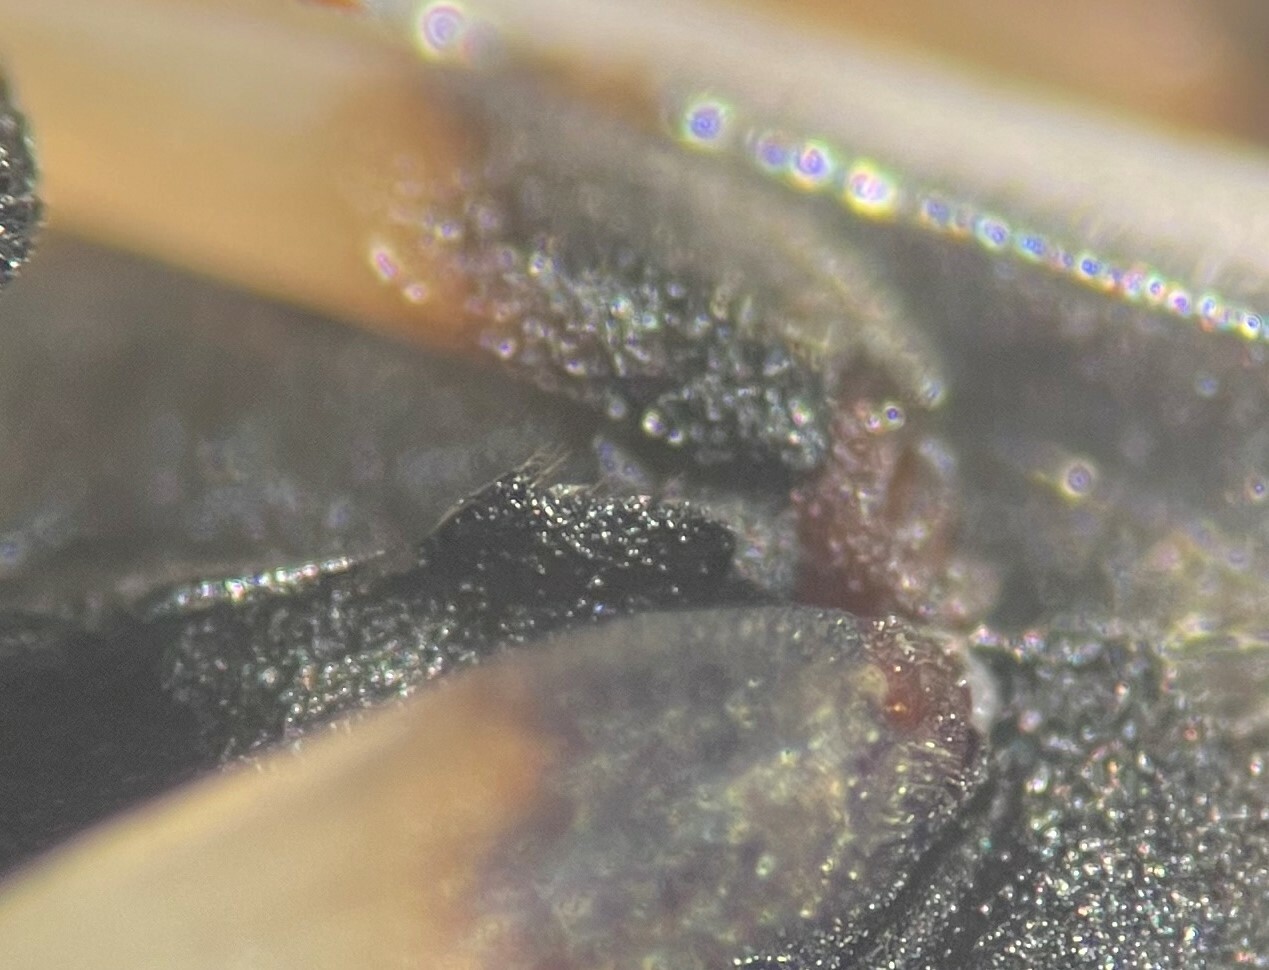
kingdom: Animalia
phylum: Arthropoda
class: Insecta
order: Coleoptera
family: Hydrophilidae
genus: Berosus
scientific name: Berosus salvini
